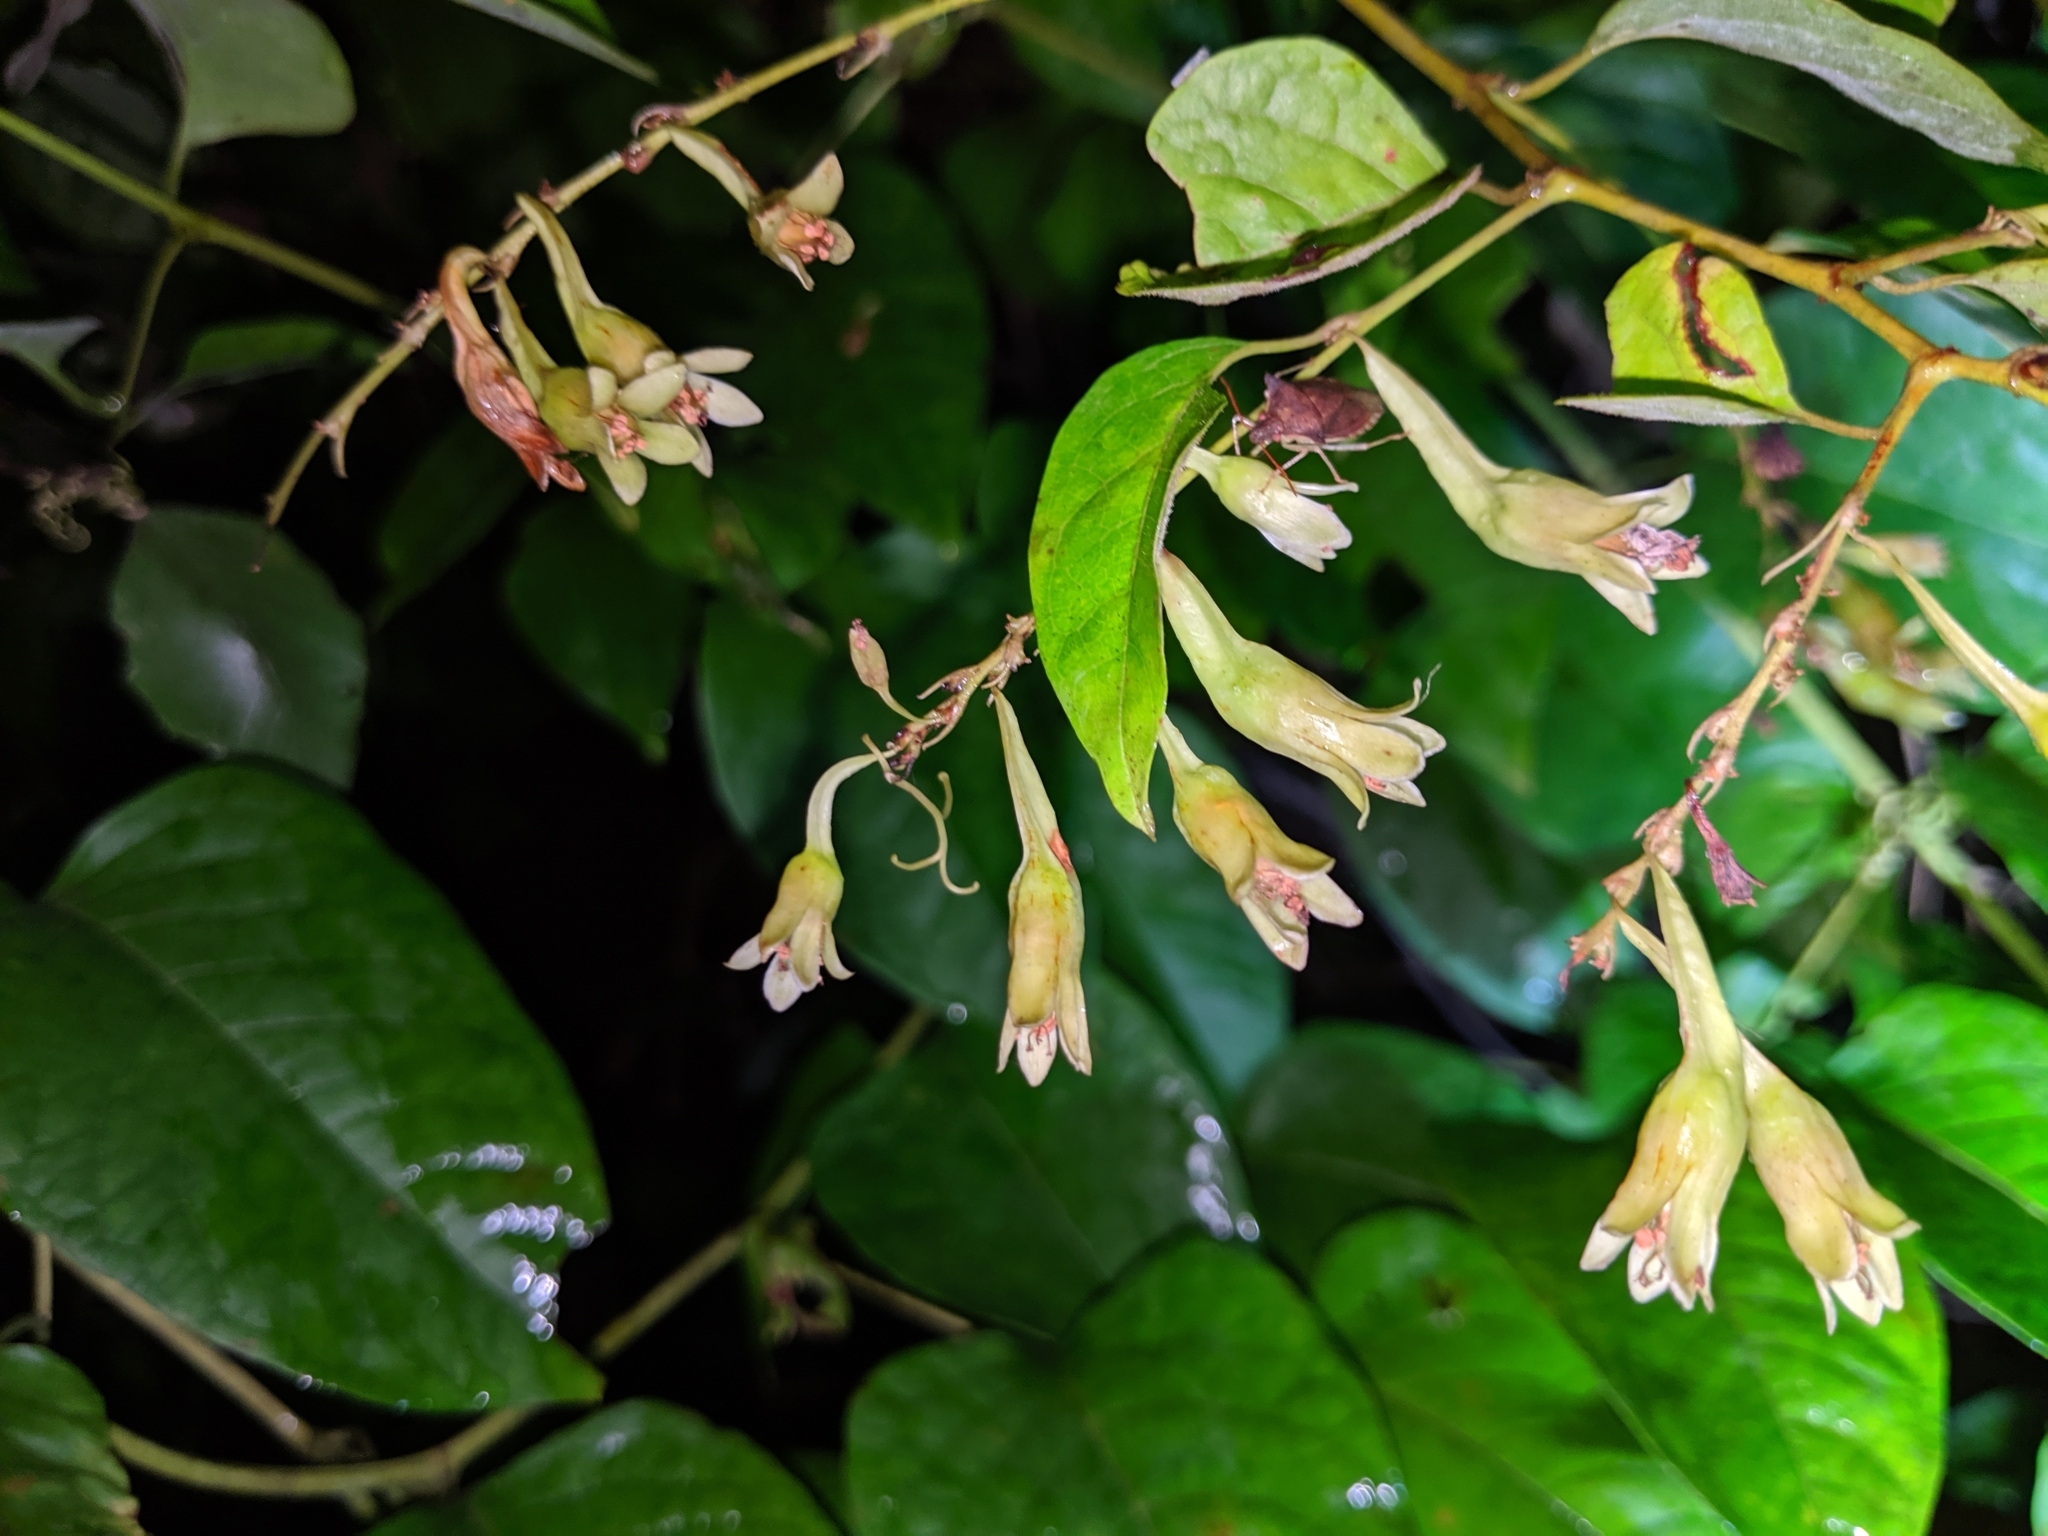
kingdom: Plantae
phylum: Tracheophyta
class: Magnoliopsida
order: Caryophyllales
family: Polygonaceae
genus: Brunnichia
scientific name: Brunnichia ovata
